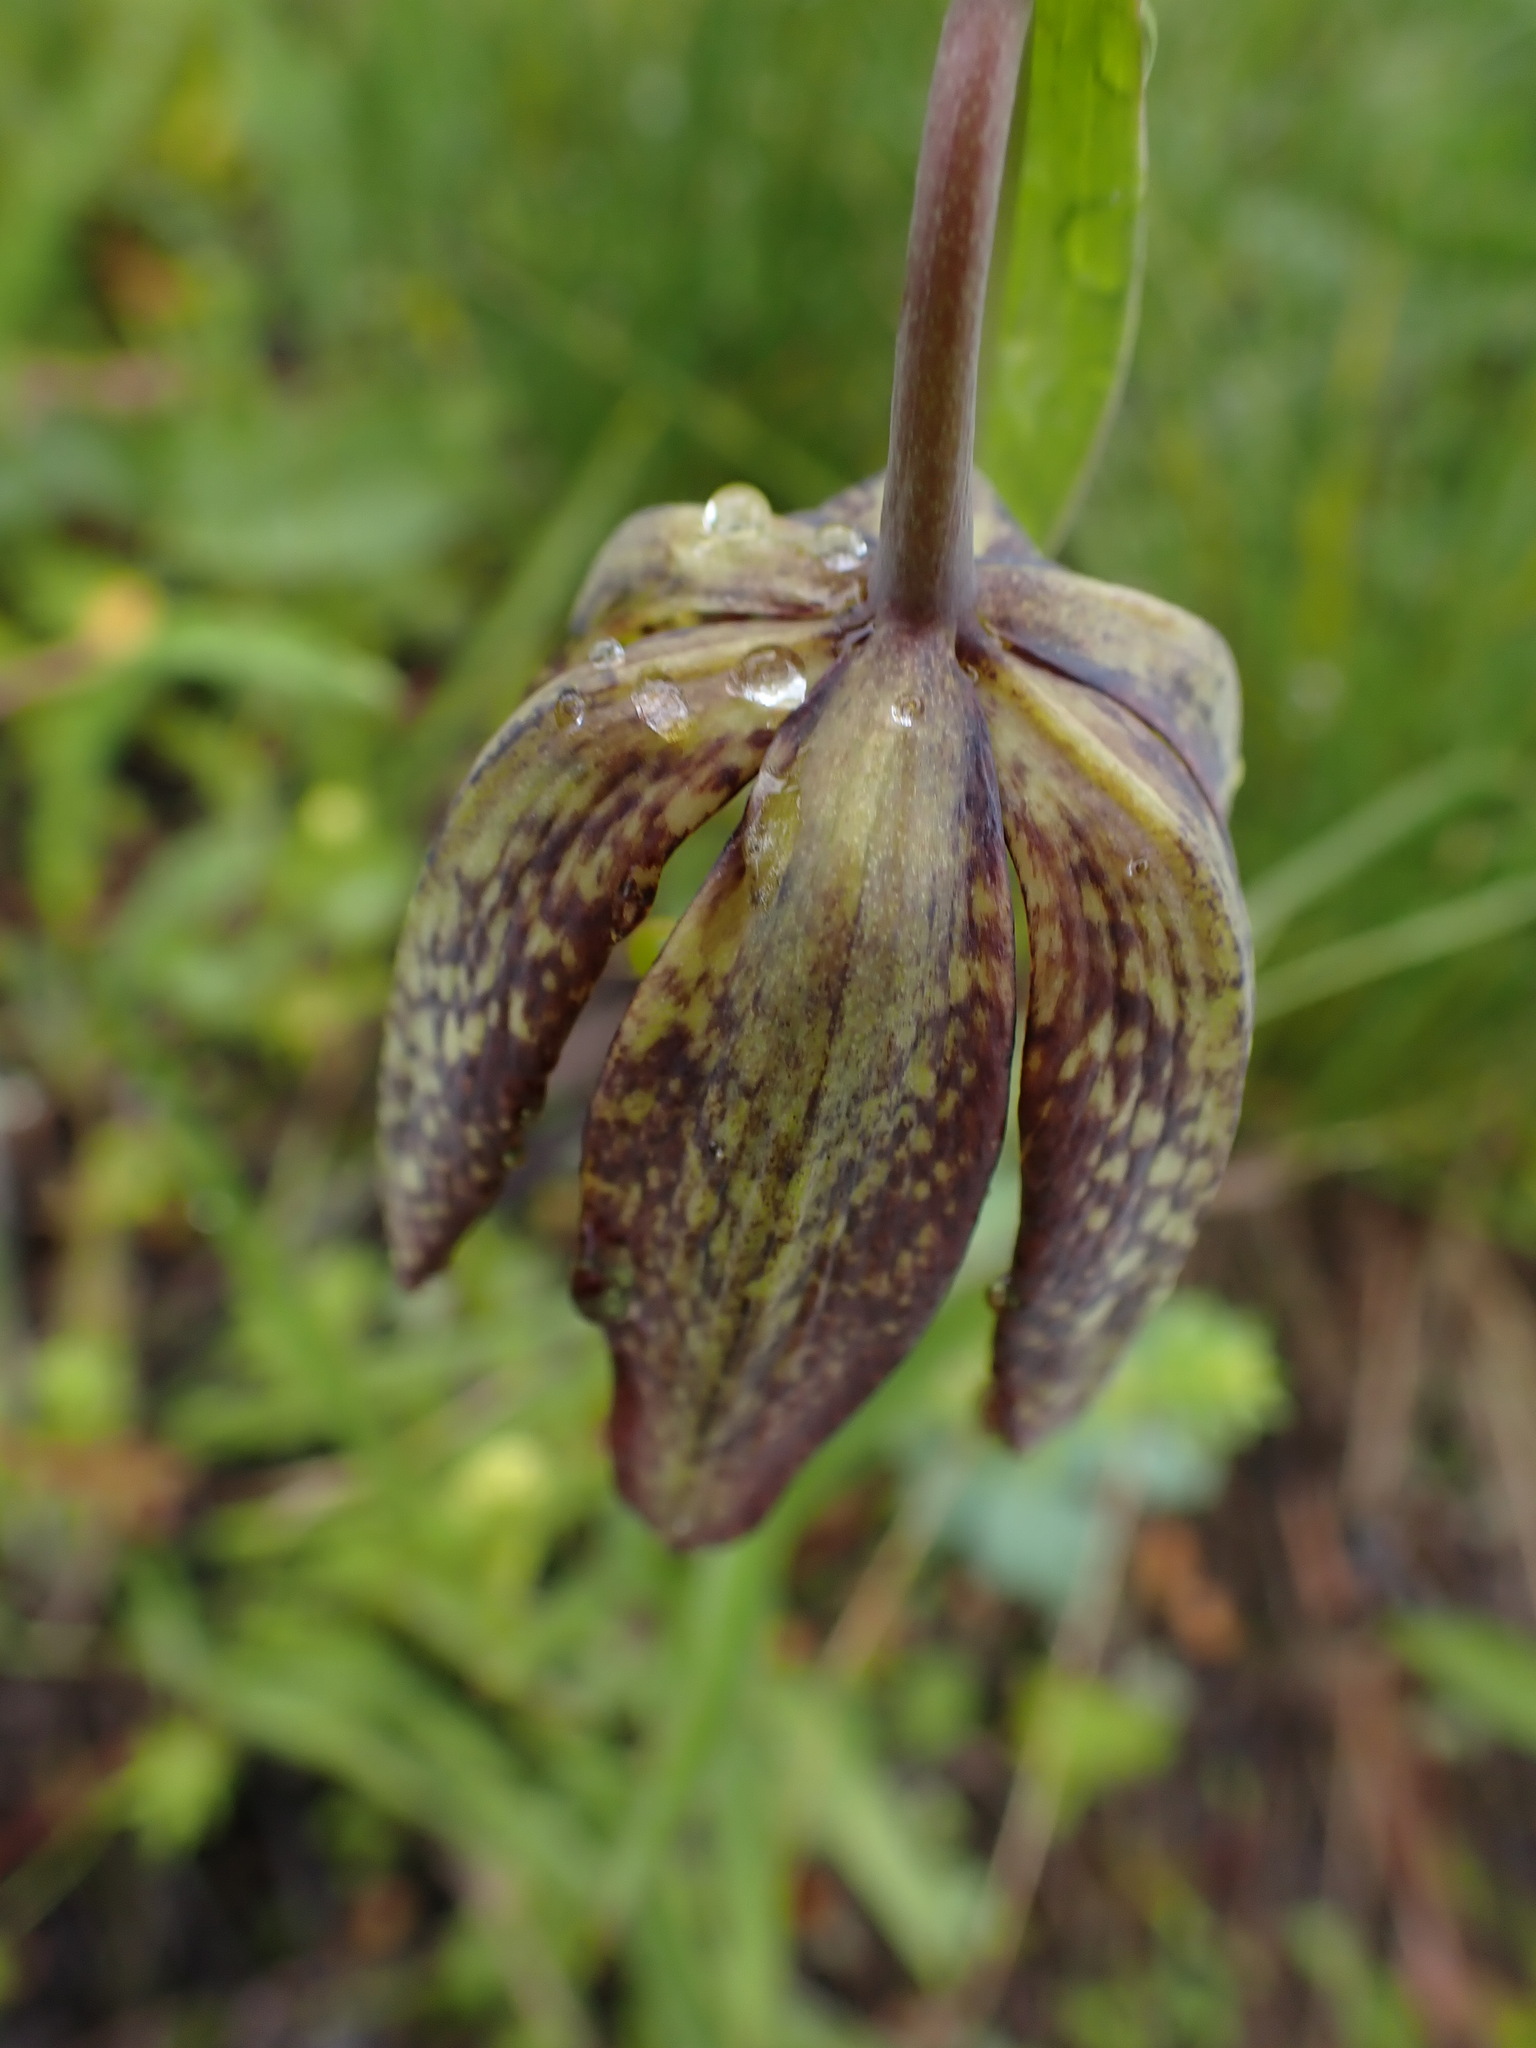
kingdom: Plantae
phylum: Tracheophyta
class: Liliopsida
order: Liliales
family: Liliaceae
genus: Fritillaria
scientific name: Fritillaria affinis
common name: Ojai fritillary
